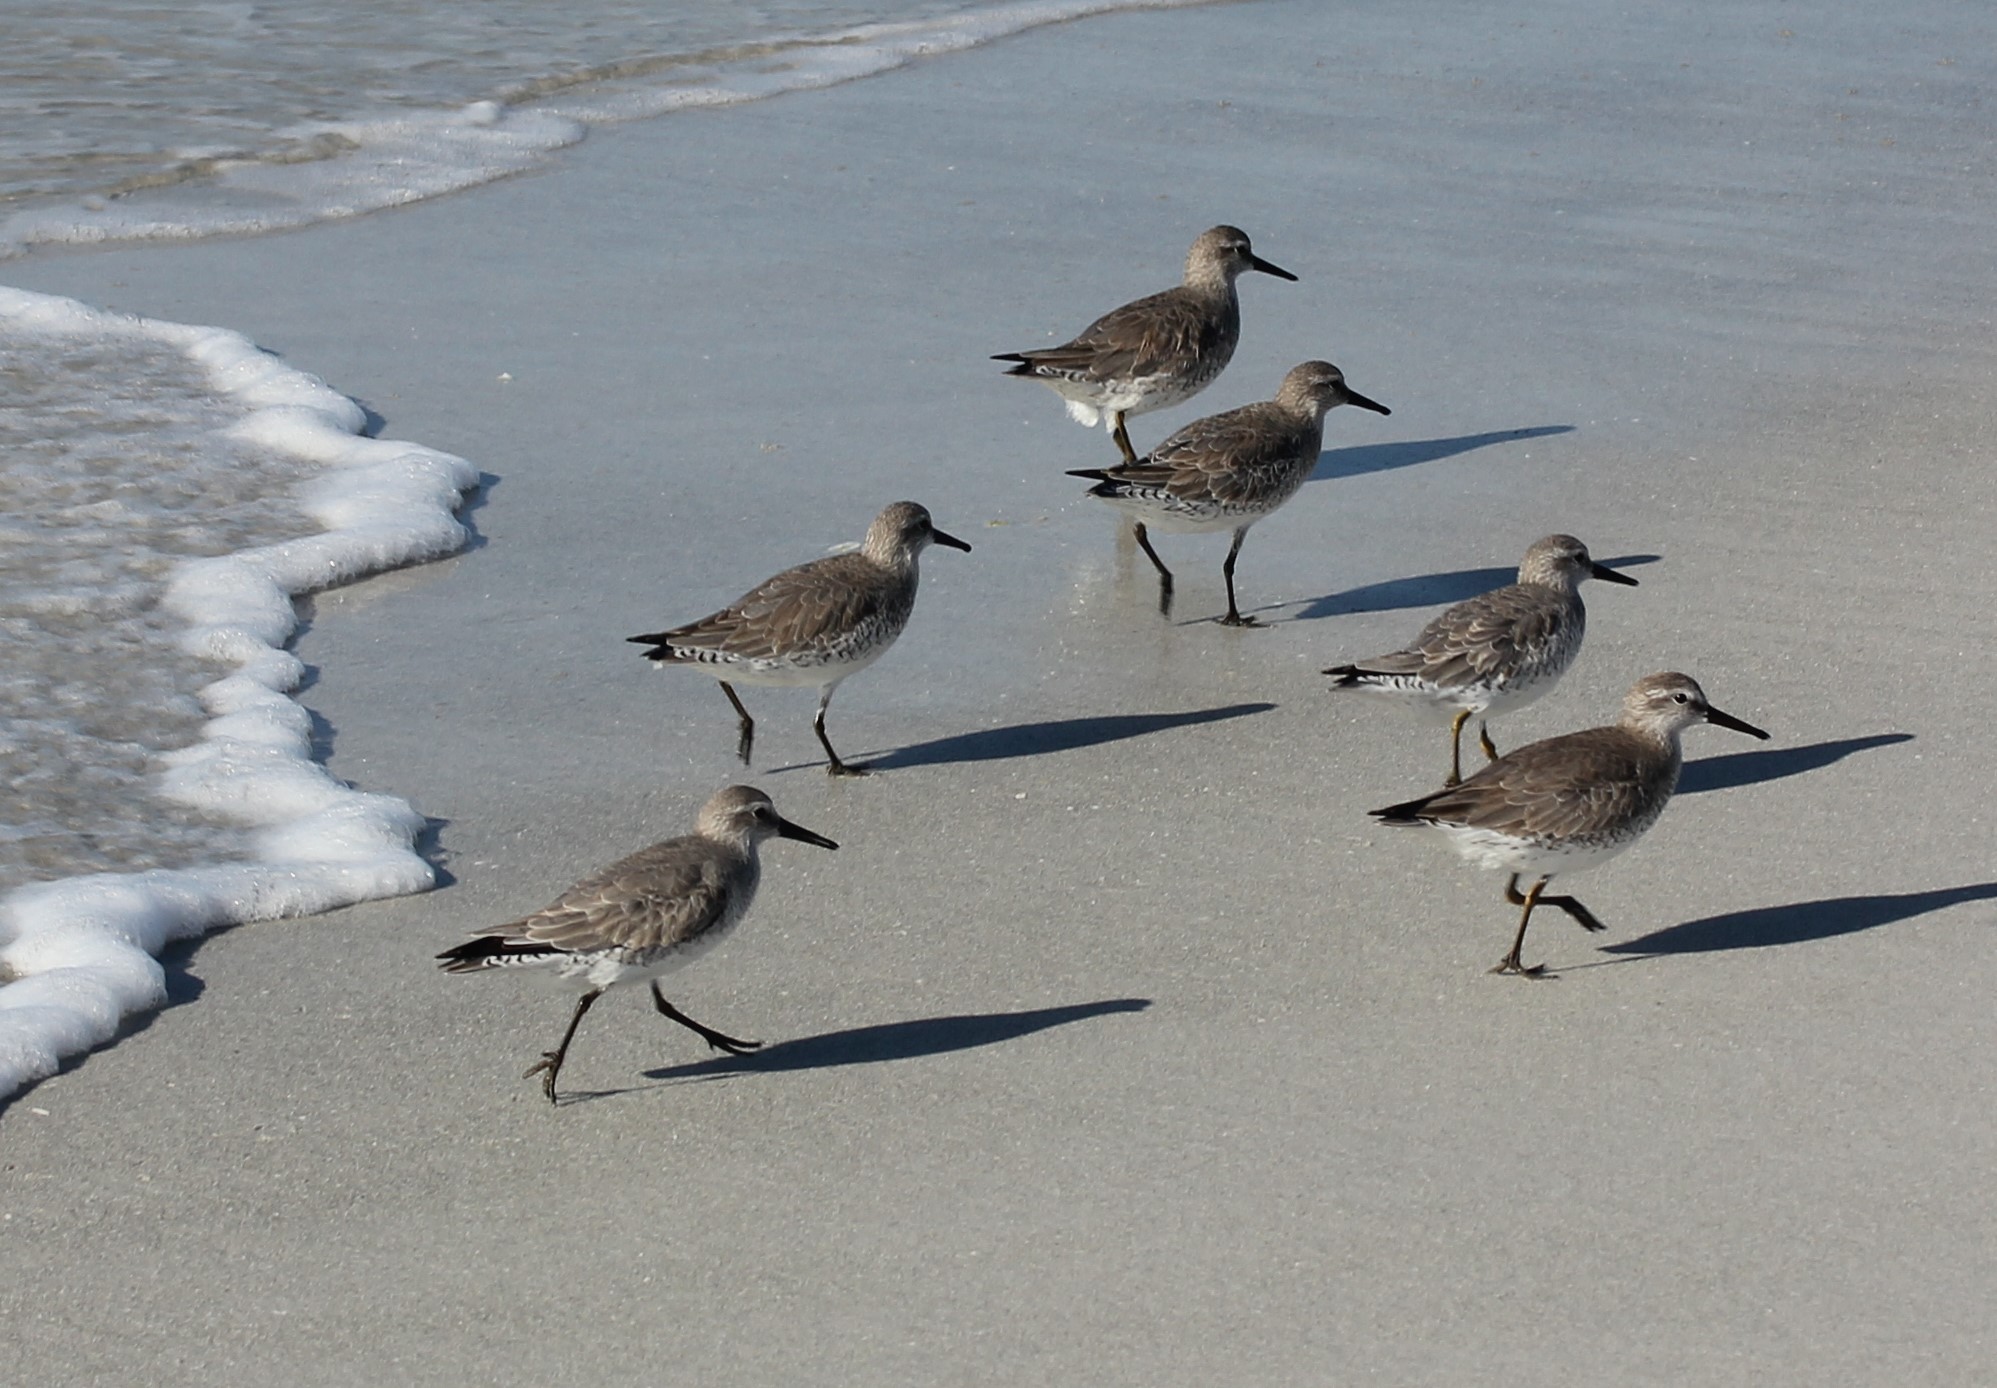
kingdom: Animalia
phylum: Chordata
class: Aves
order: Charadriiformes
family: Scolopacidae
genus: Calidris
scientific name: Calidris canutus
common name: Red knot
